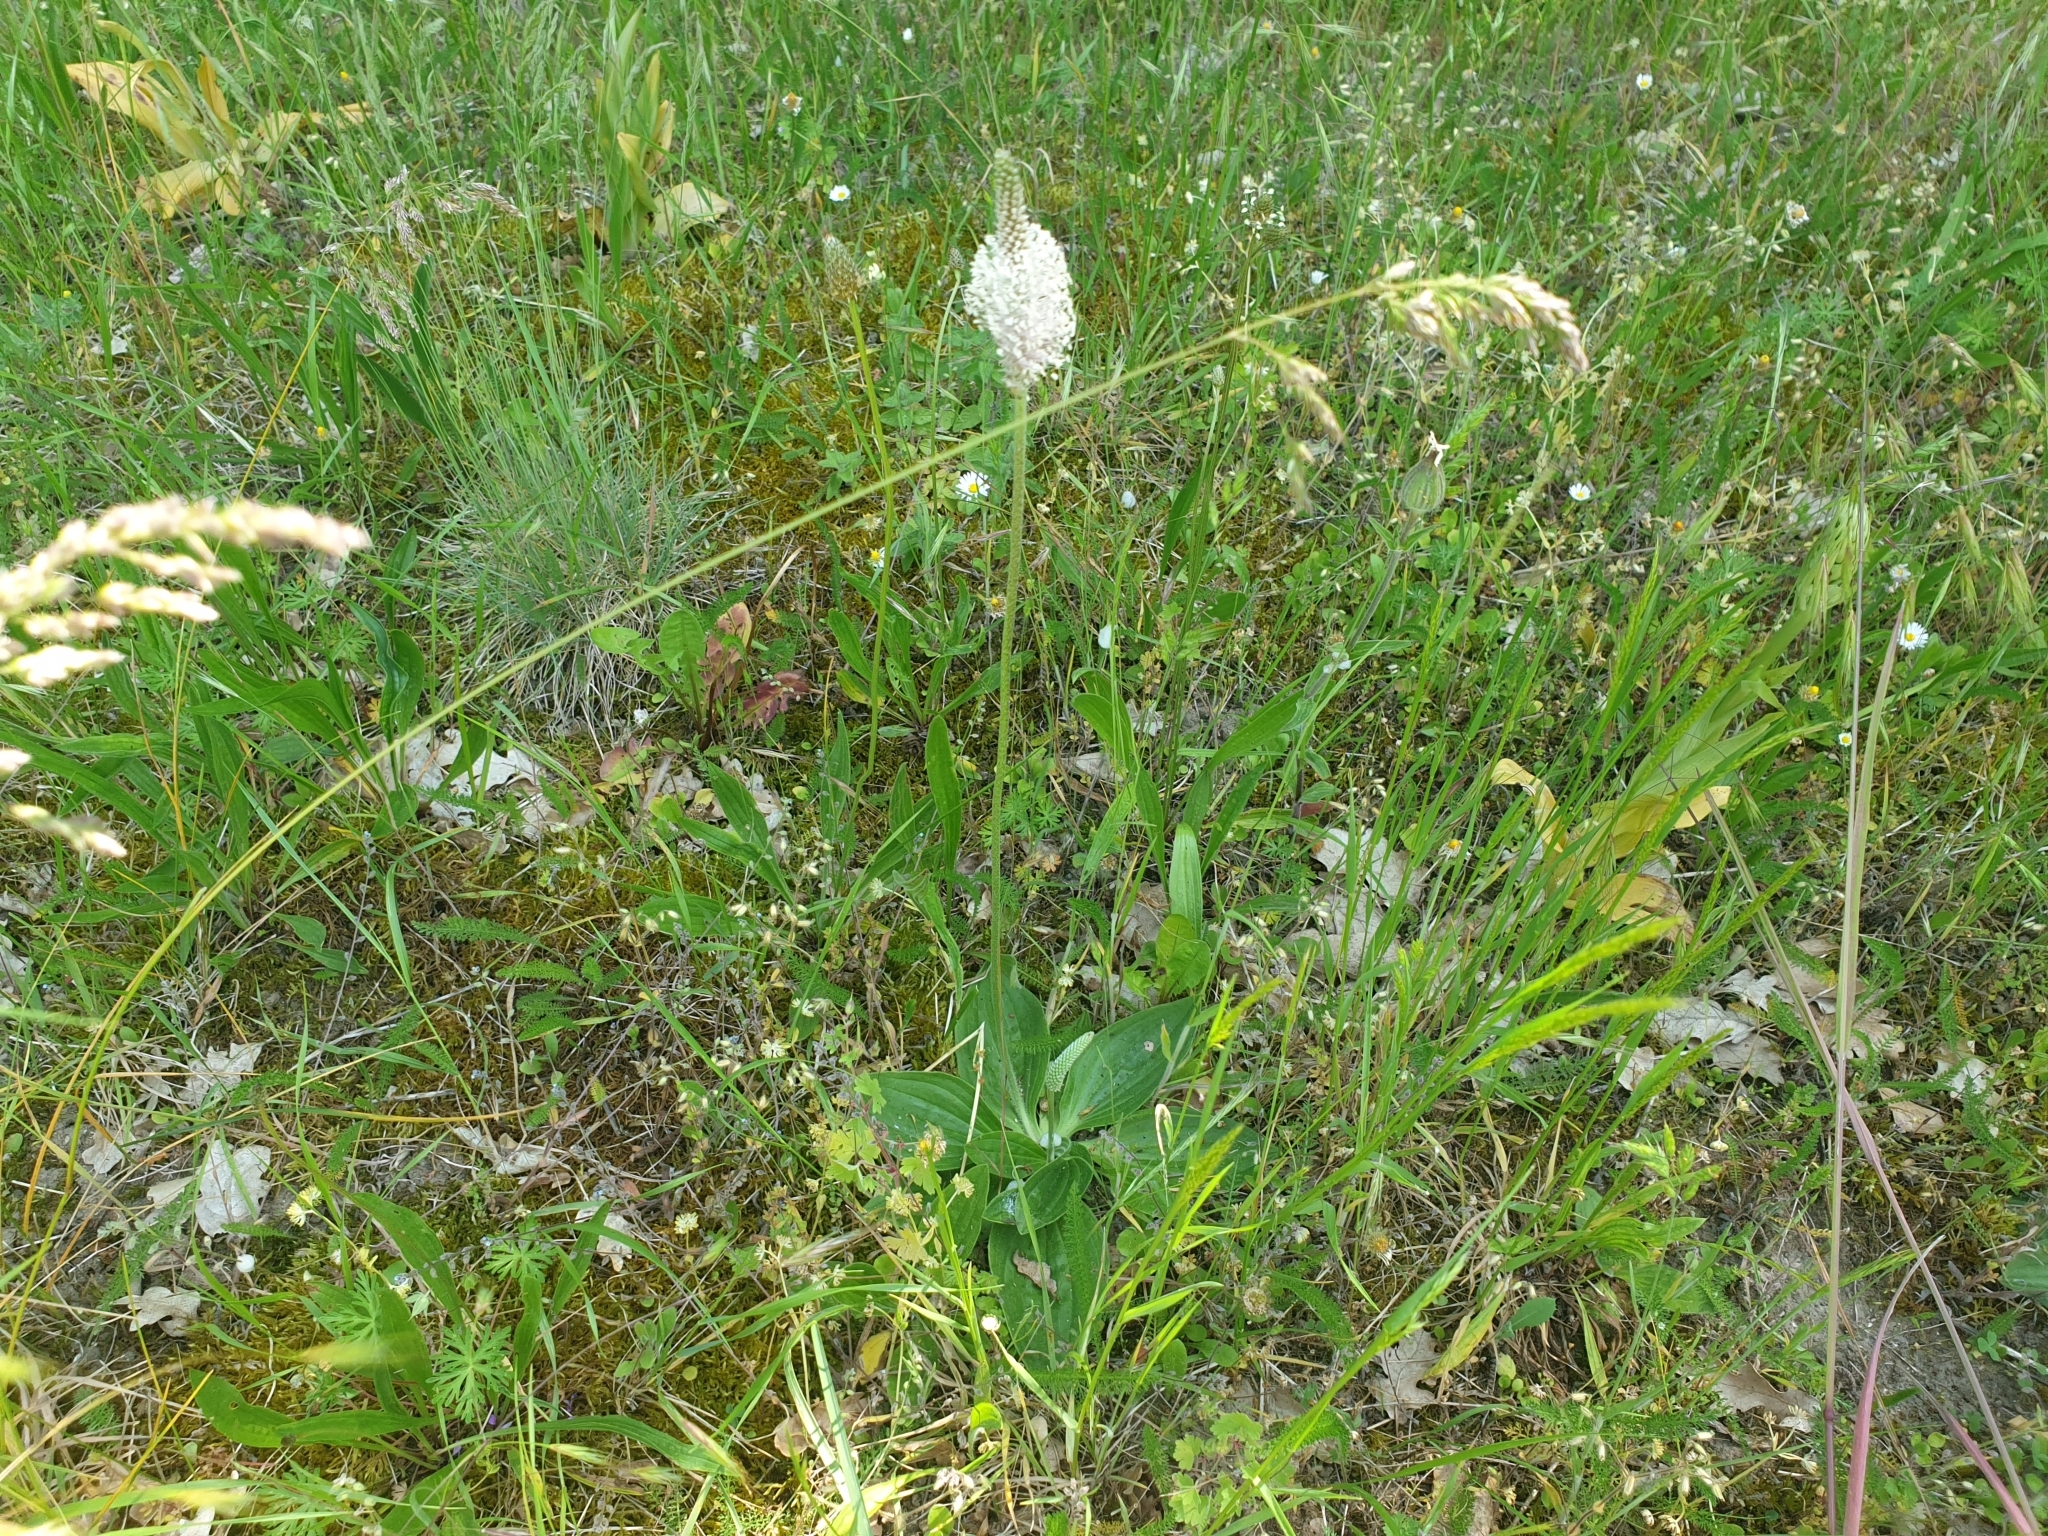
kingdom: Plantae
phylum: Tracheophyta
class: Magnoliopsida
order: Lamiales
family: Plantaginaceae
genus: Plantago
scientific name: Plantago media
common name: Hoary plantain
